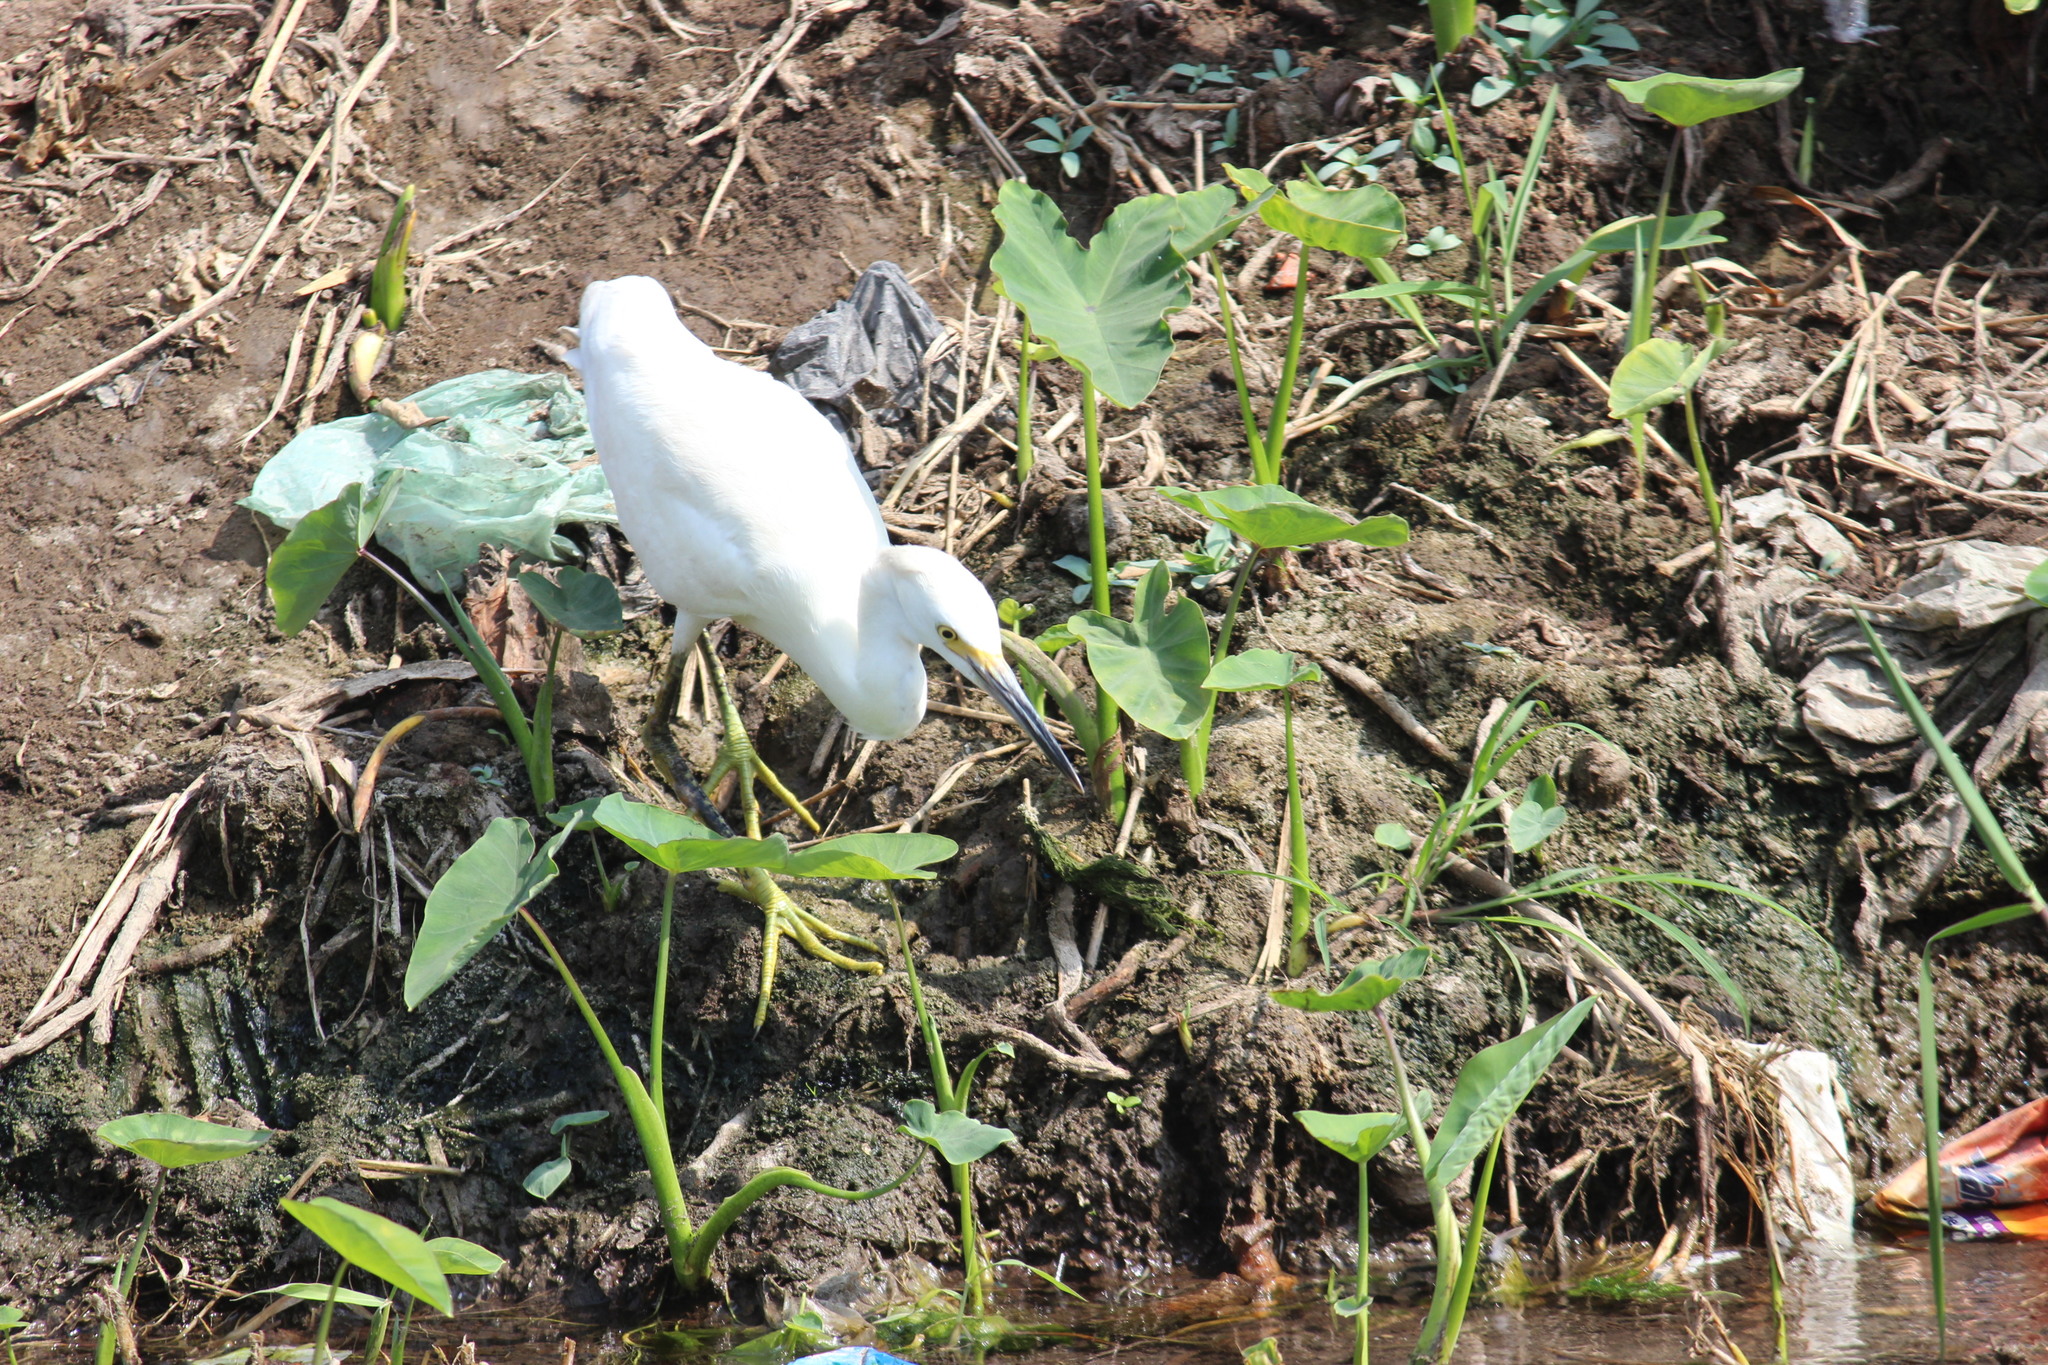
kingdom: Animalia
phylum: Chordata
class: Aves
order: Pelecaniformes
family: Ardeidae
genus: Egretta
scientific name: Egretta thula
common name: Snowy egret
